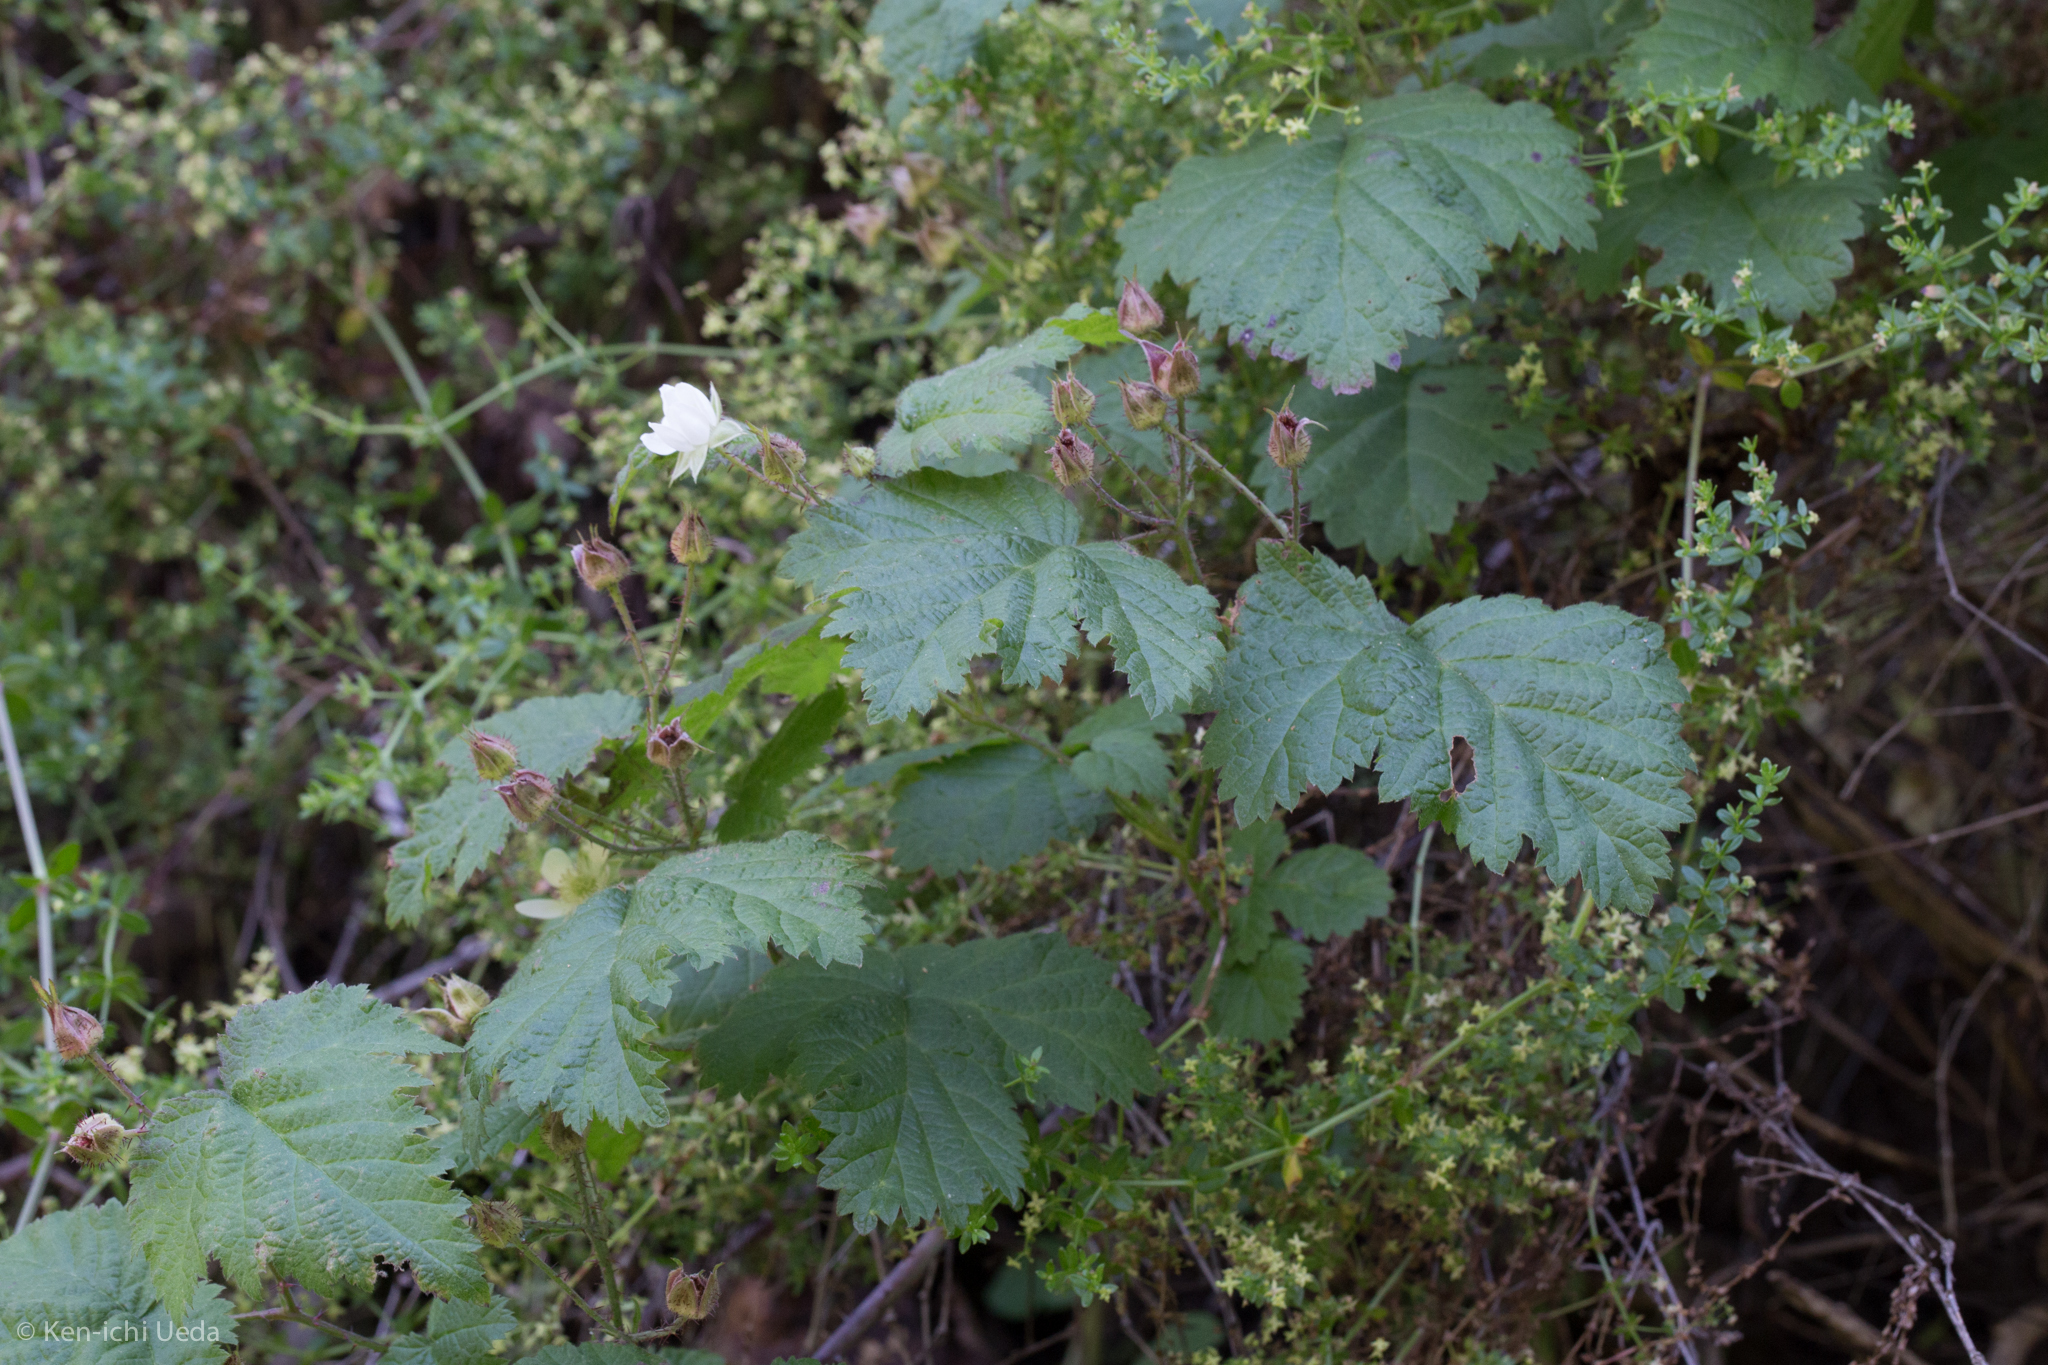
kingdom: Plantae
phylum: Tracheophyta
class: Magnoliopsida
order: Rosales
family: Rosaceae
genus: Rubus
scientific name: Rubus ursinus
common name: Pacific blackberry
